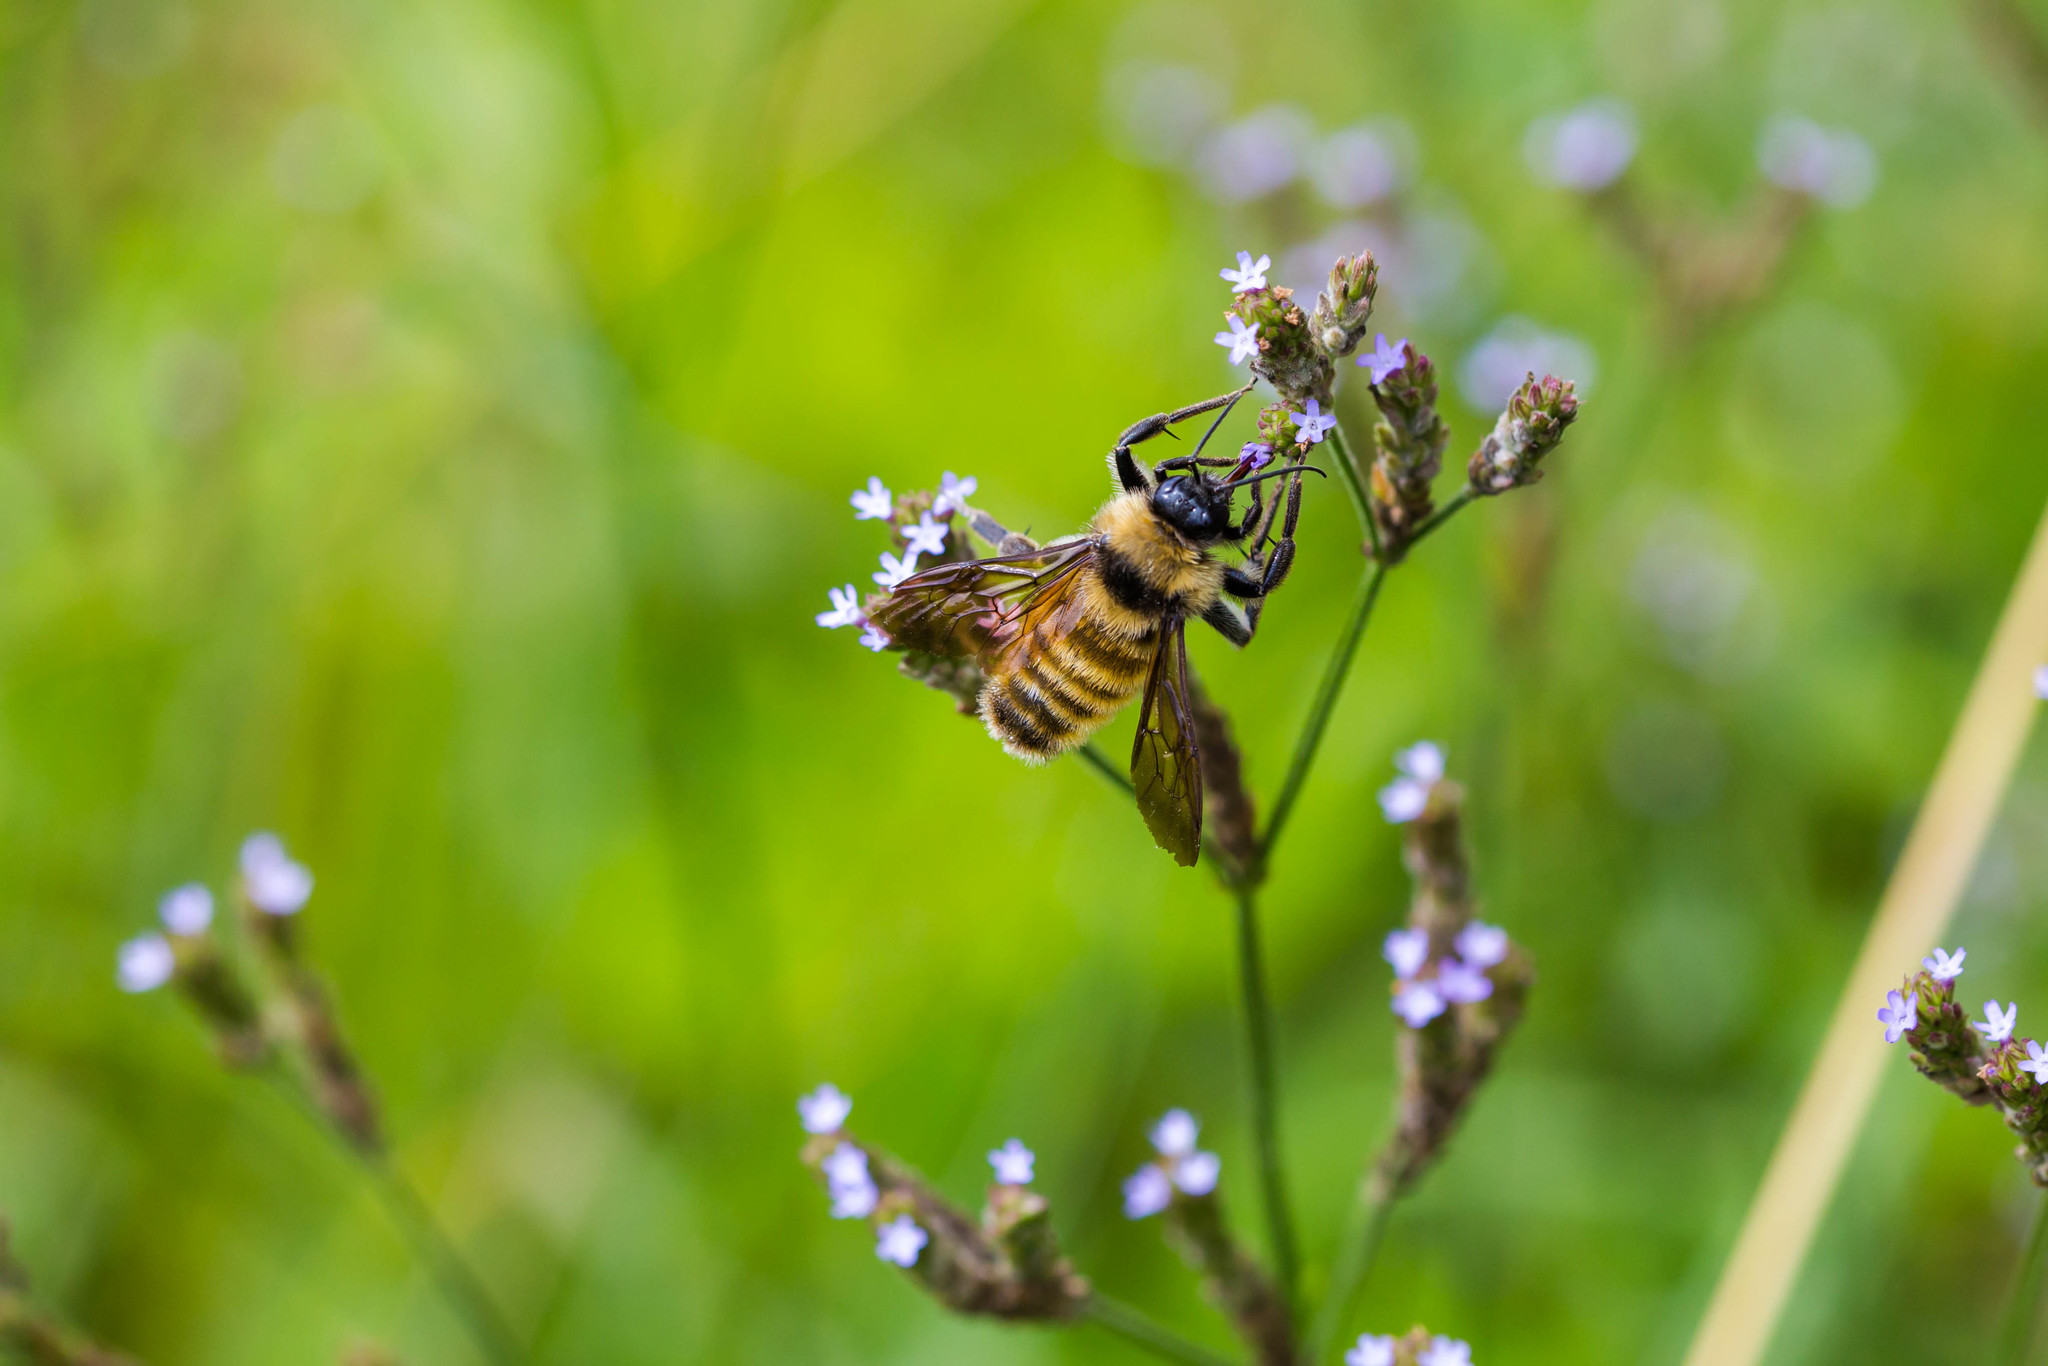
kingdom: Animalia
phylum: Arthropoda
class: Insecta
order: Hymenoptera
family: Apidae
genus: Bombus
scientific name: Bombus pensylvanicus
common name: Bumble bee
